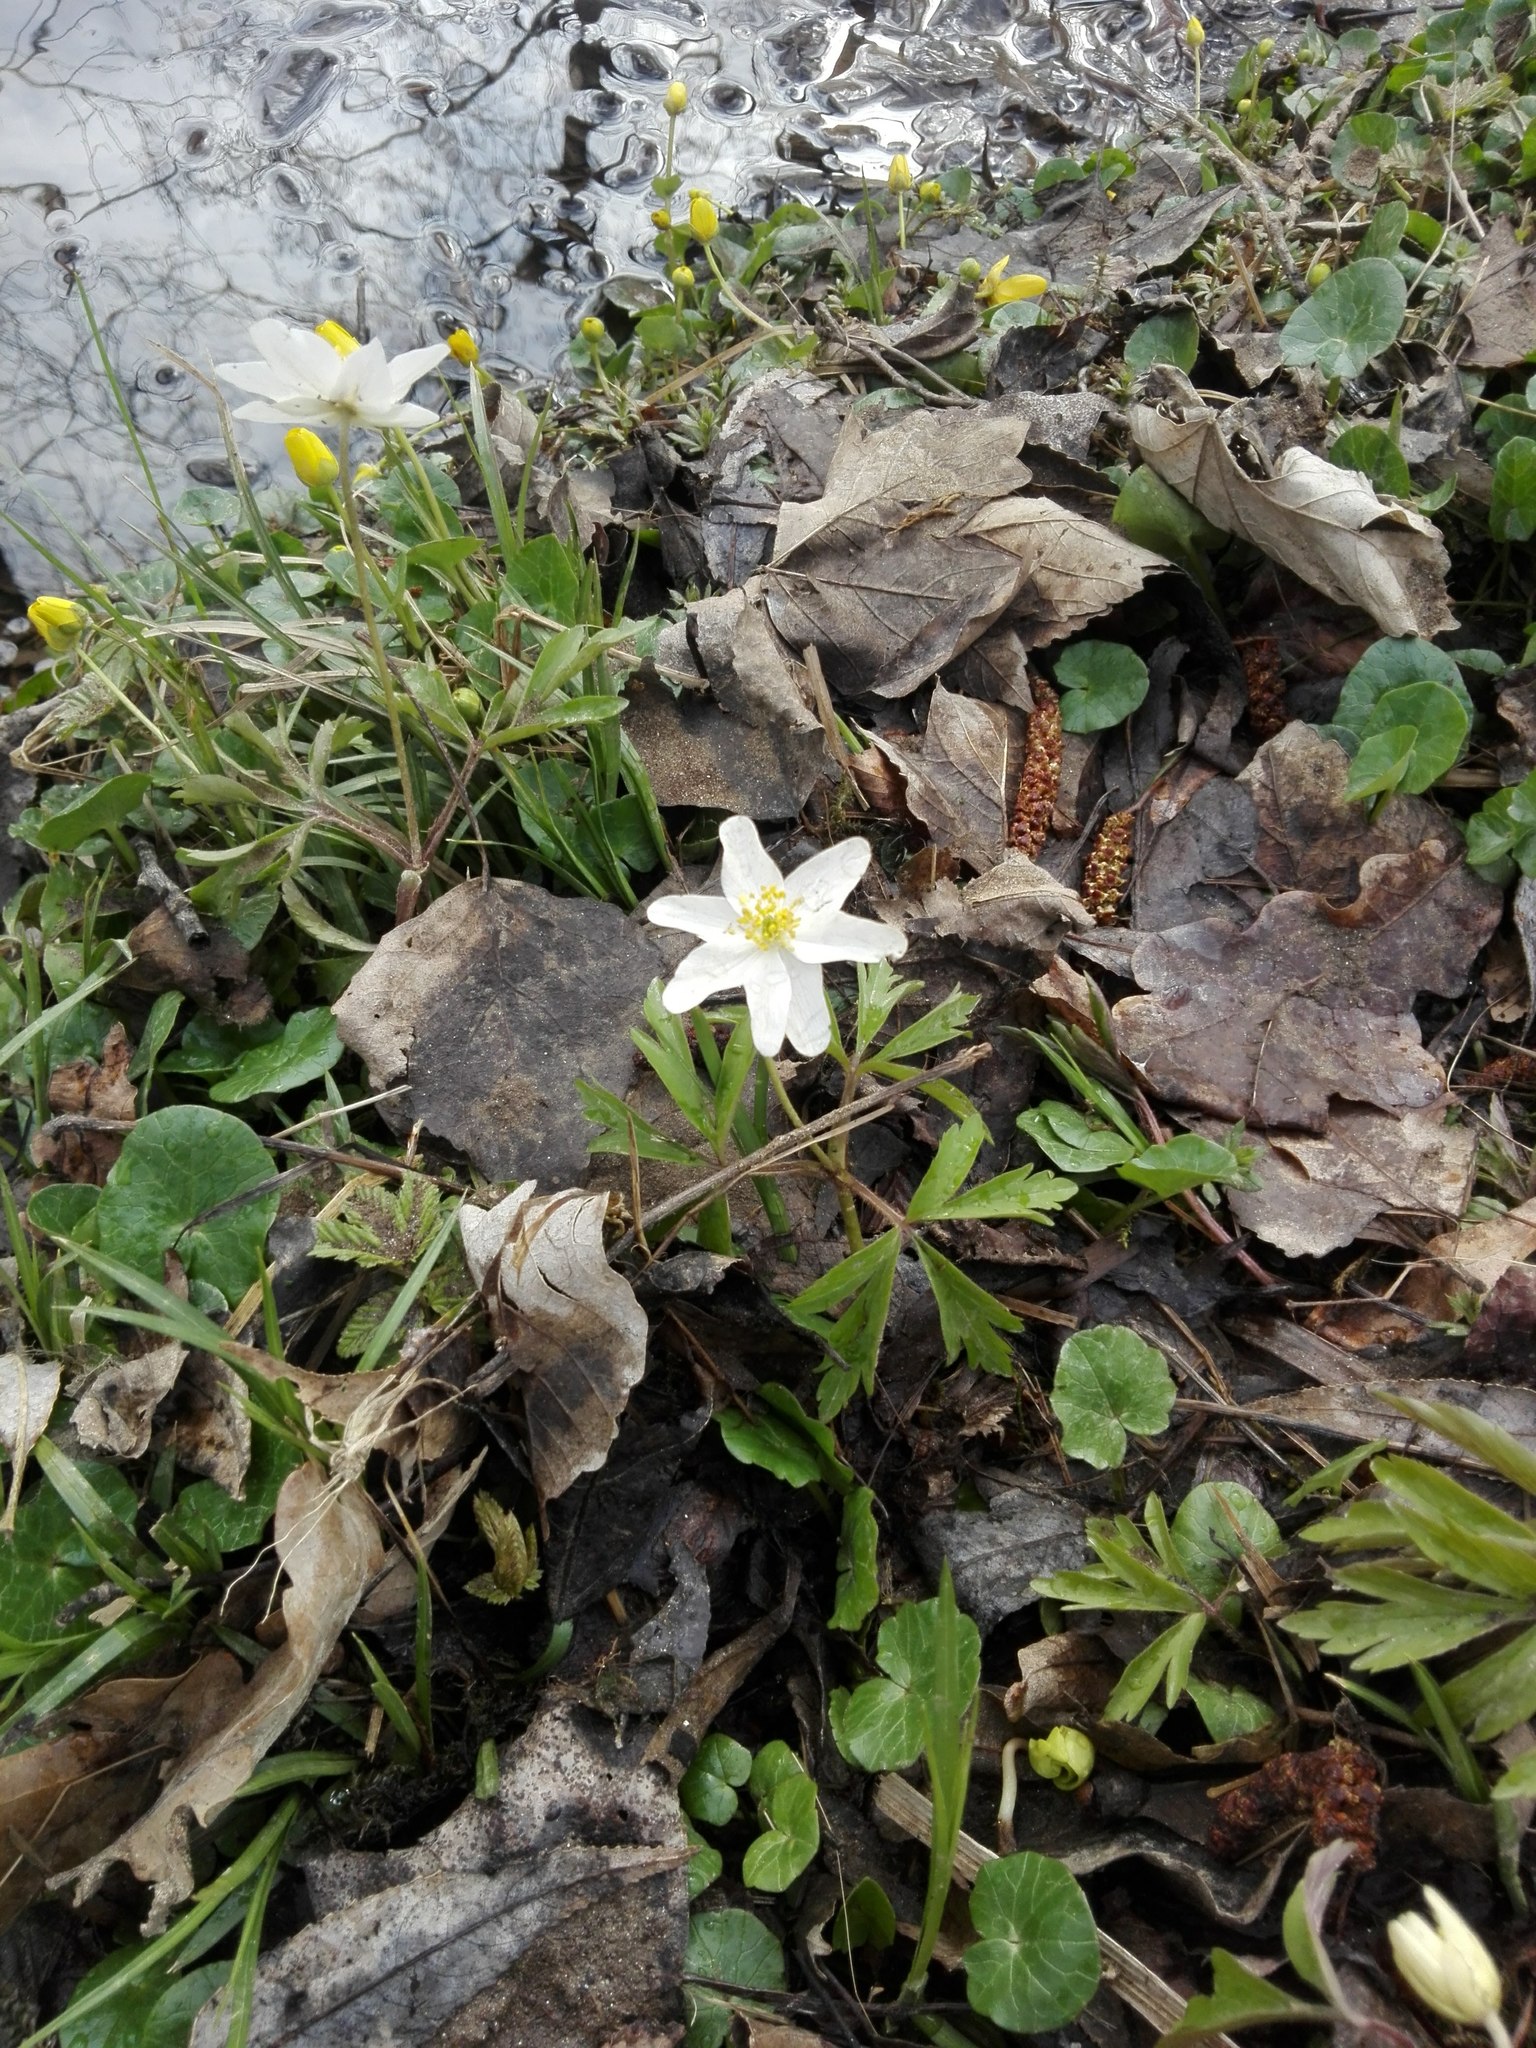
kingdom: Plantae
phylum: Tracheophyta
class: Magnoliopsida
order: Ranunculales
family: Ranunculaceae
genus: Anemone
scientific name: Anemone nemorosa
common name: Wood anemone
